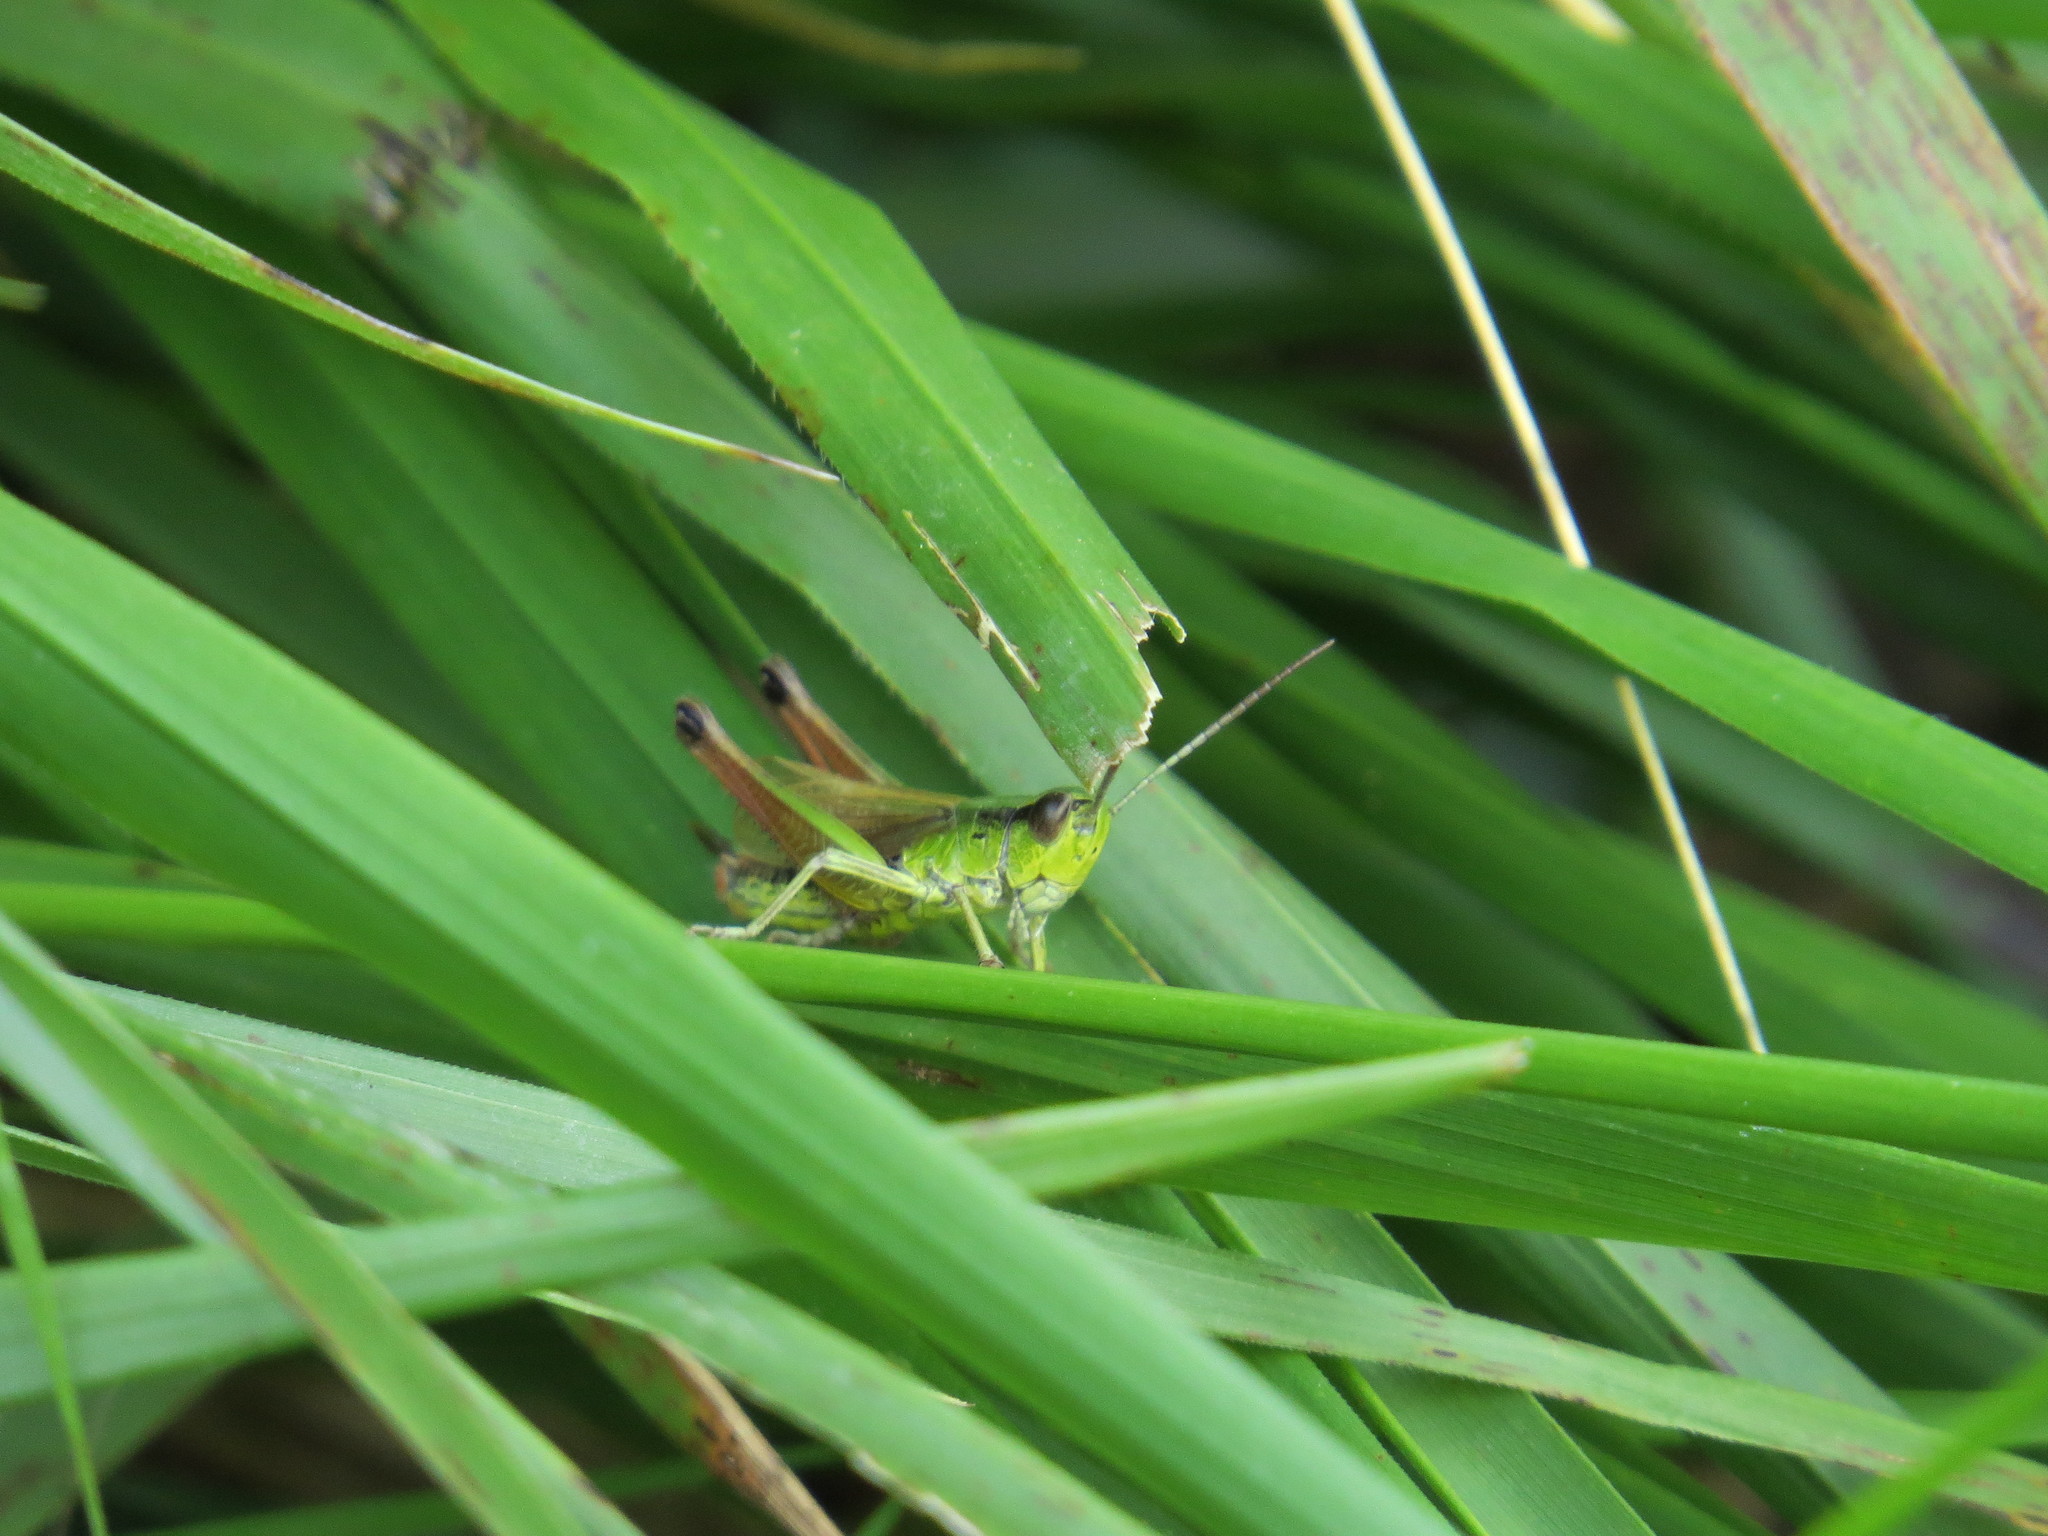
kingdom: Animalia
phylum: Arthropoda
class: Insecta
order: Orthoptera
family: Acrididae
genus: Pseudochorthippus
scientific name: Pseudochorthippus parallelus
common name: Meadow grasshopper
